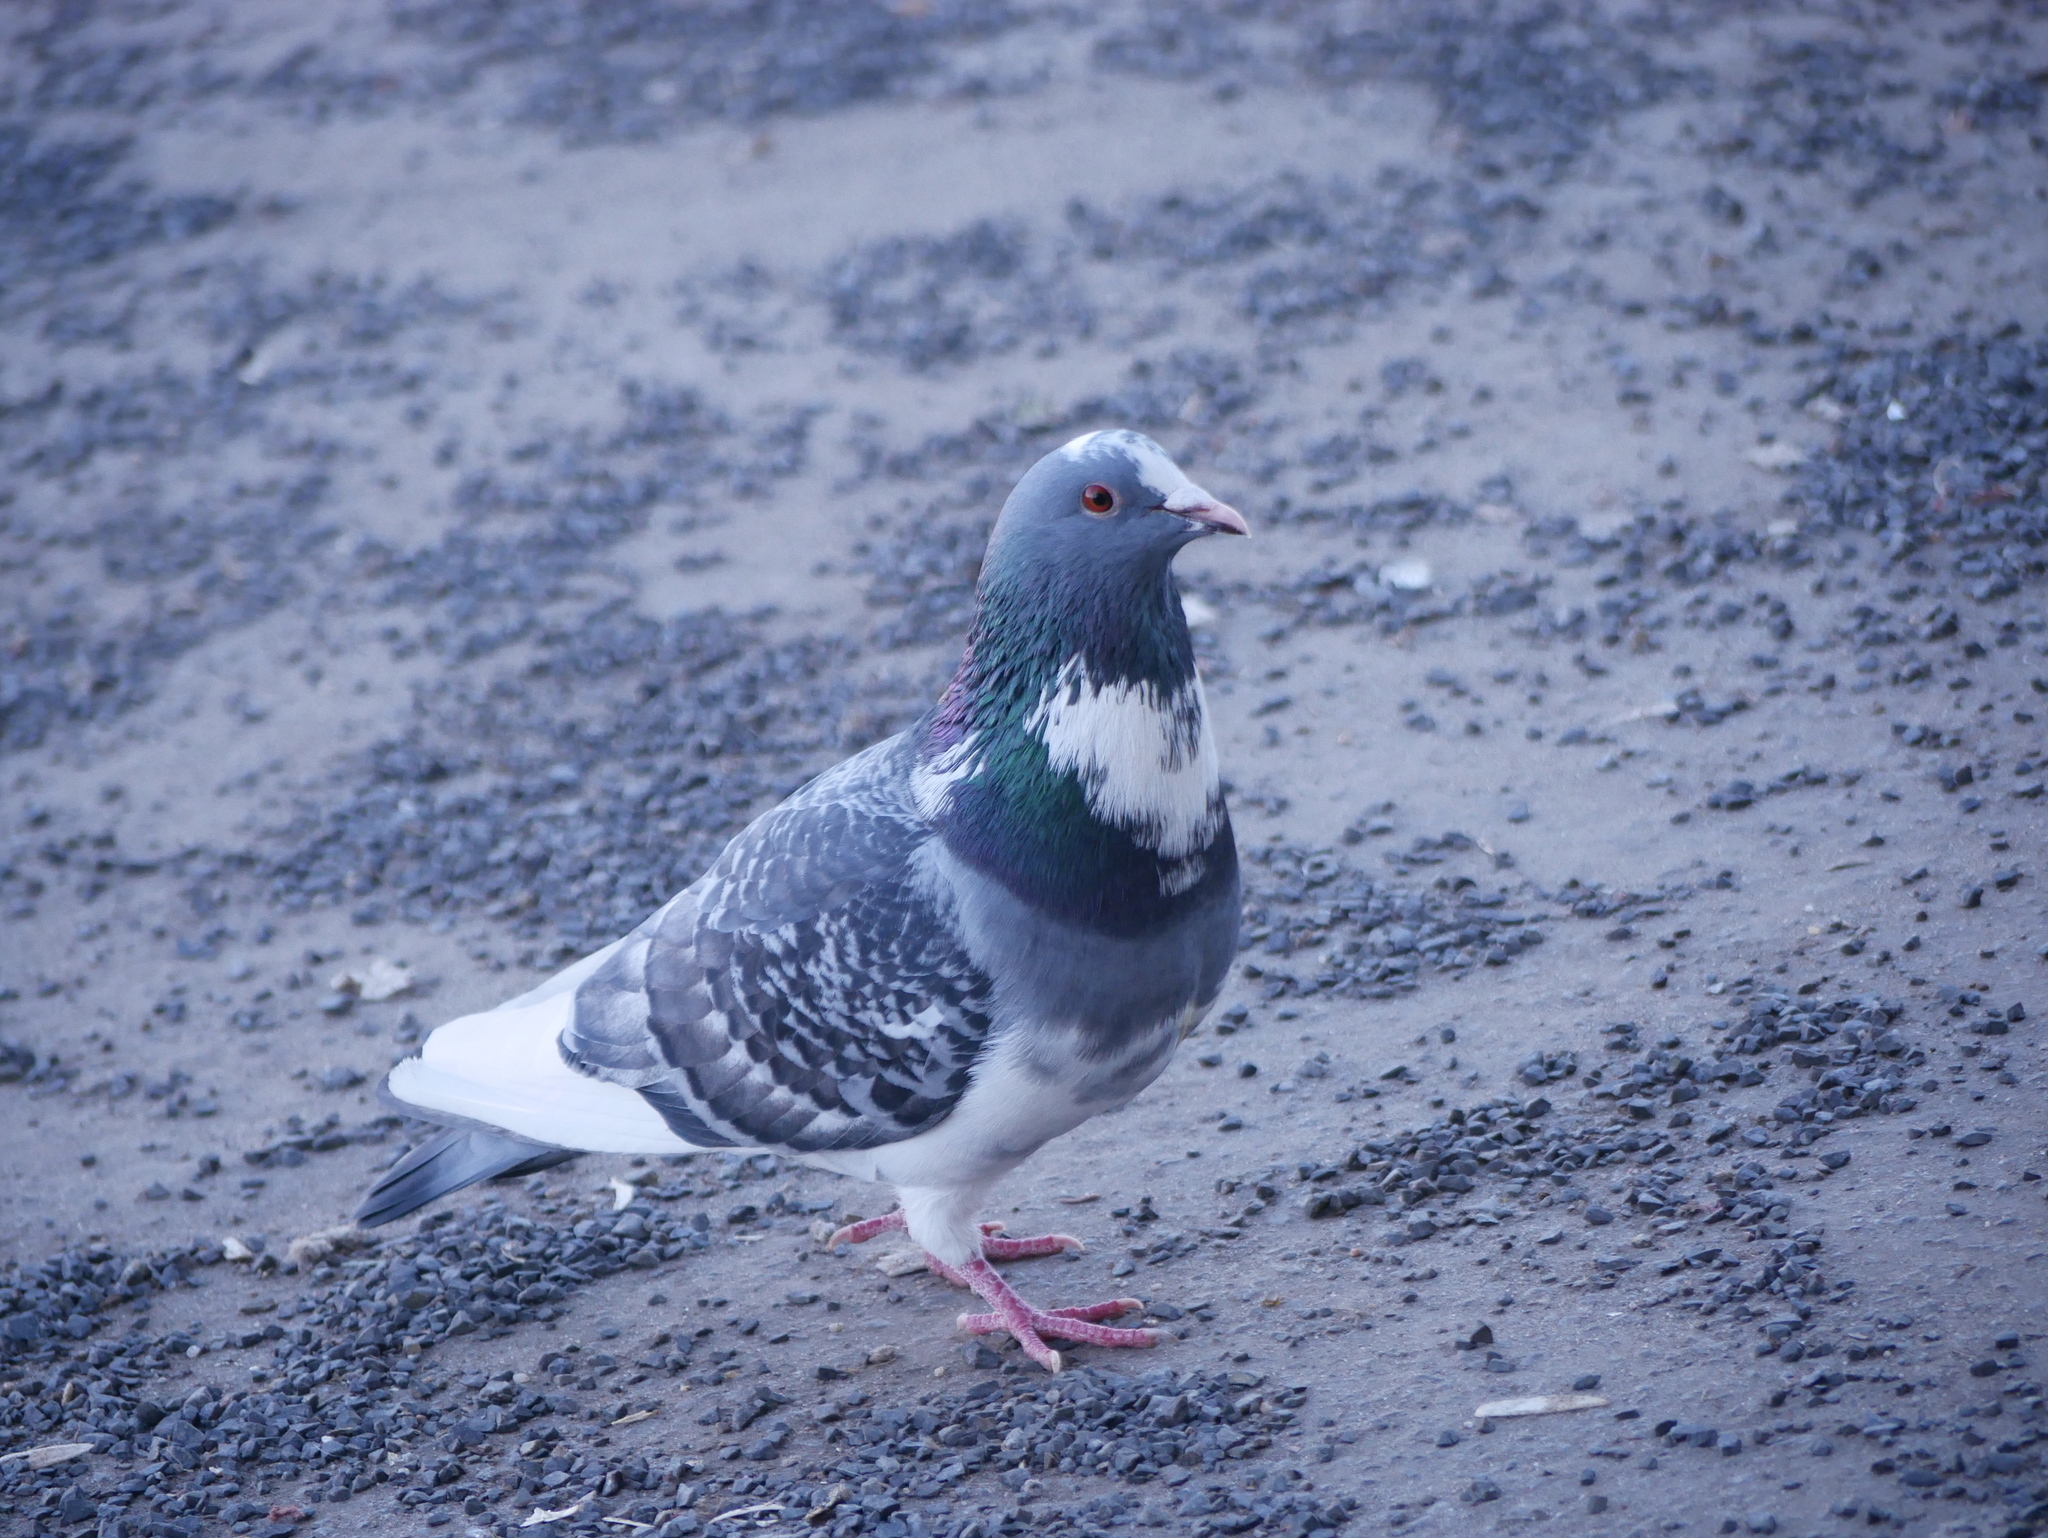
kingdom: Animalia
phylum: Chordata
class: Aves
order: Columbiformes
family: Columbidae
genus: Columba
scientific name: Columba livia
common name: Rock pigeon
